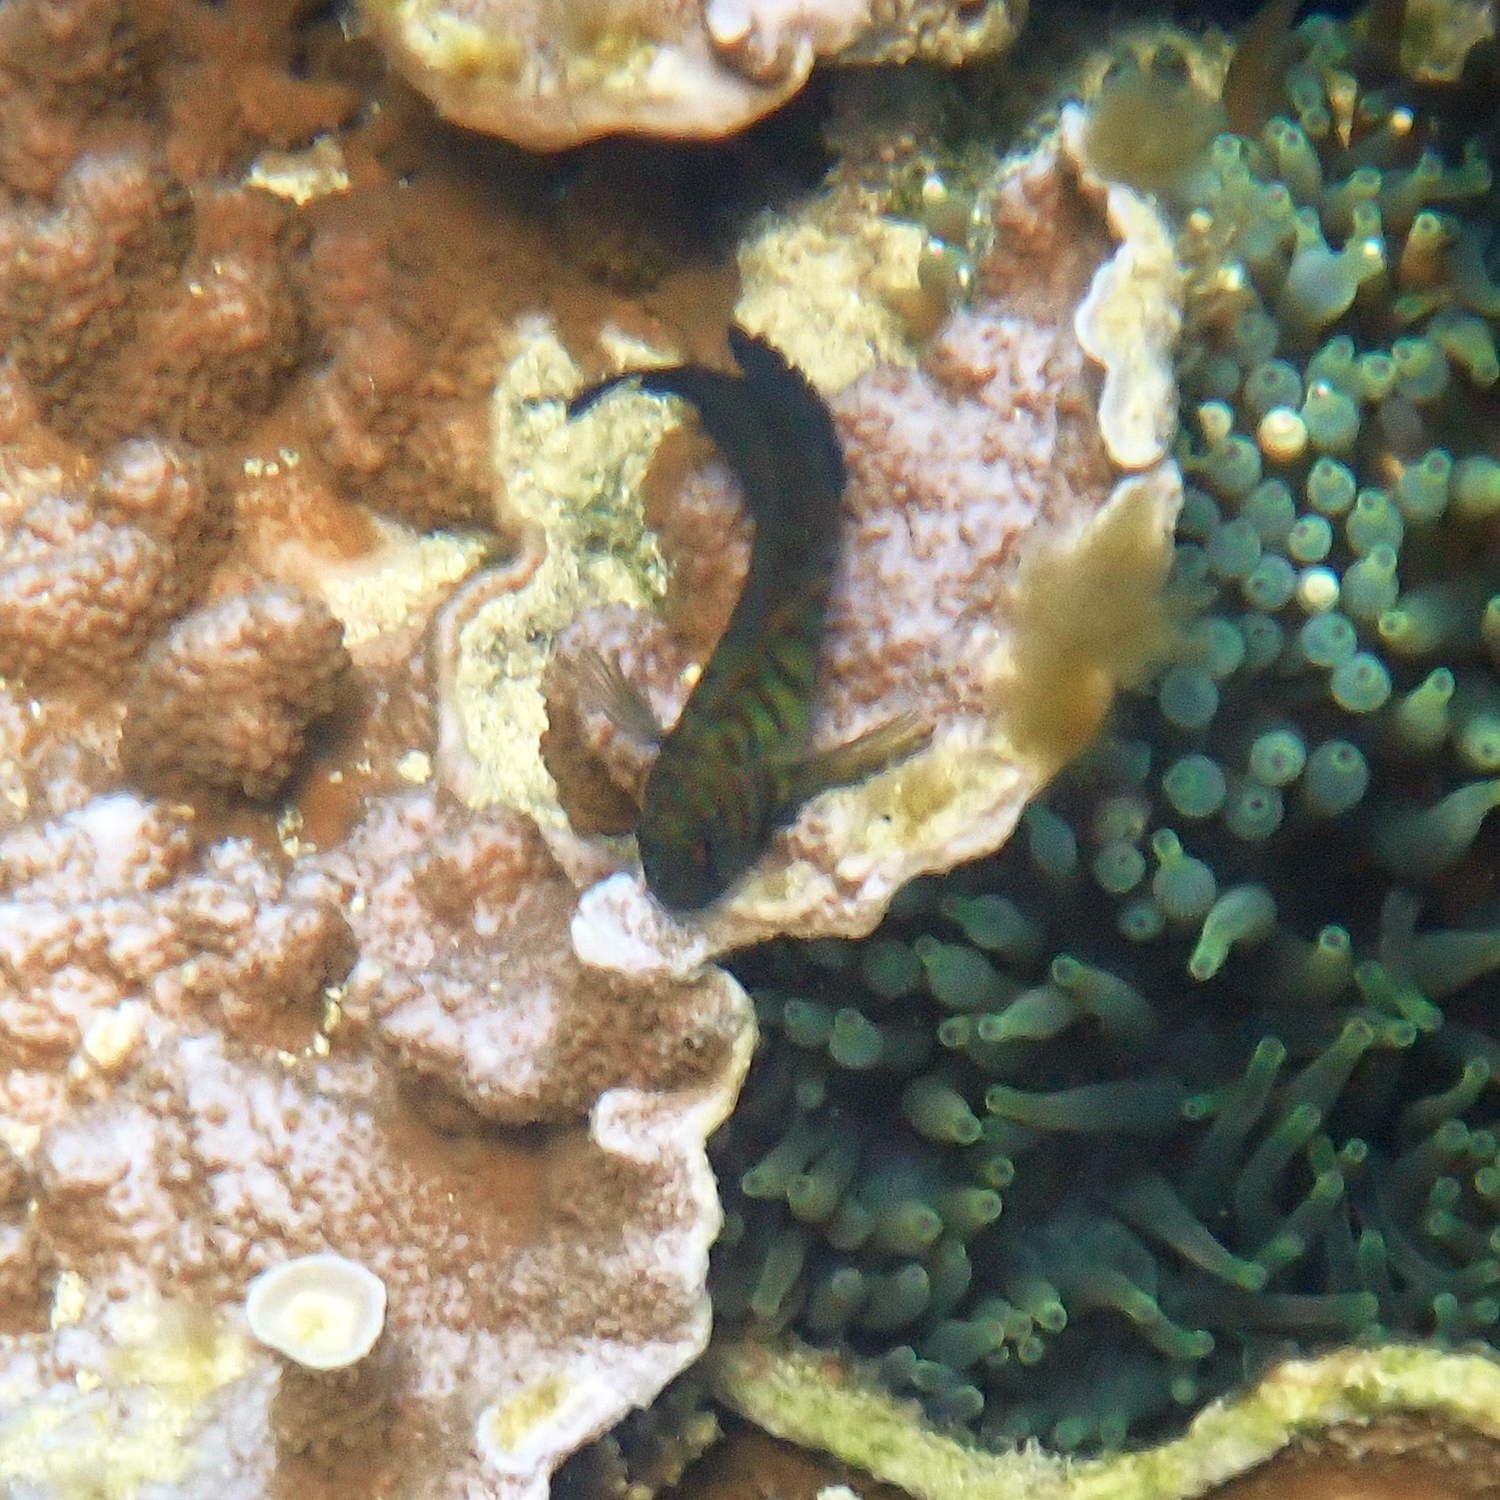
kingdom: Animalia
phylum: Chordata
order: Perciformes
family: Blenniidae
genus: Cirripectes
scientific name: Cirripectes castaneus
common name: Chestnut blenny
